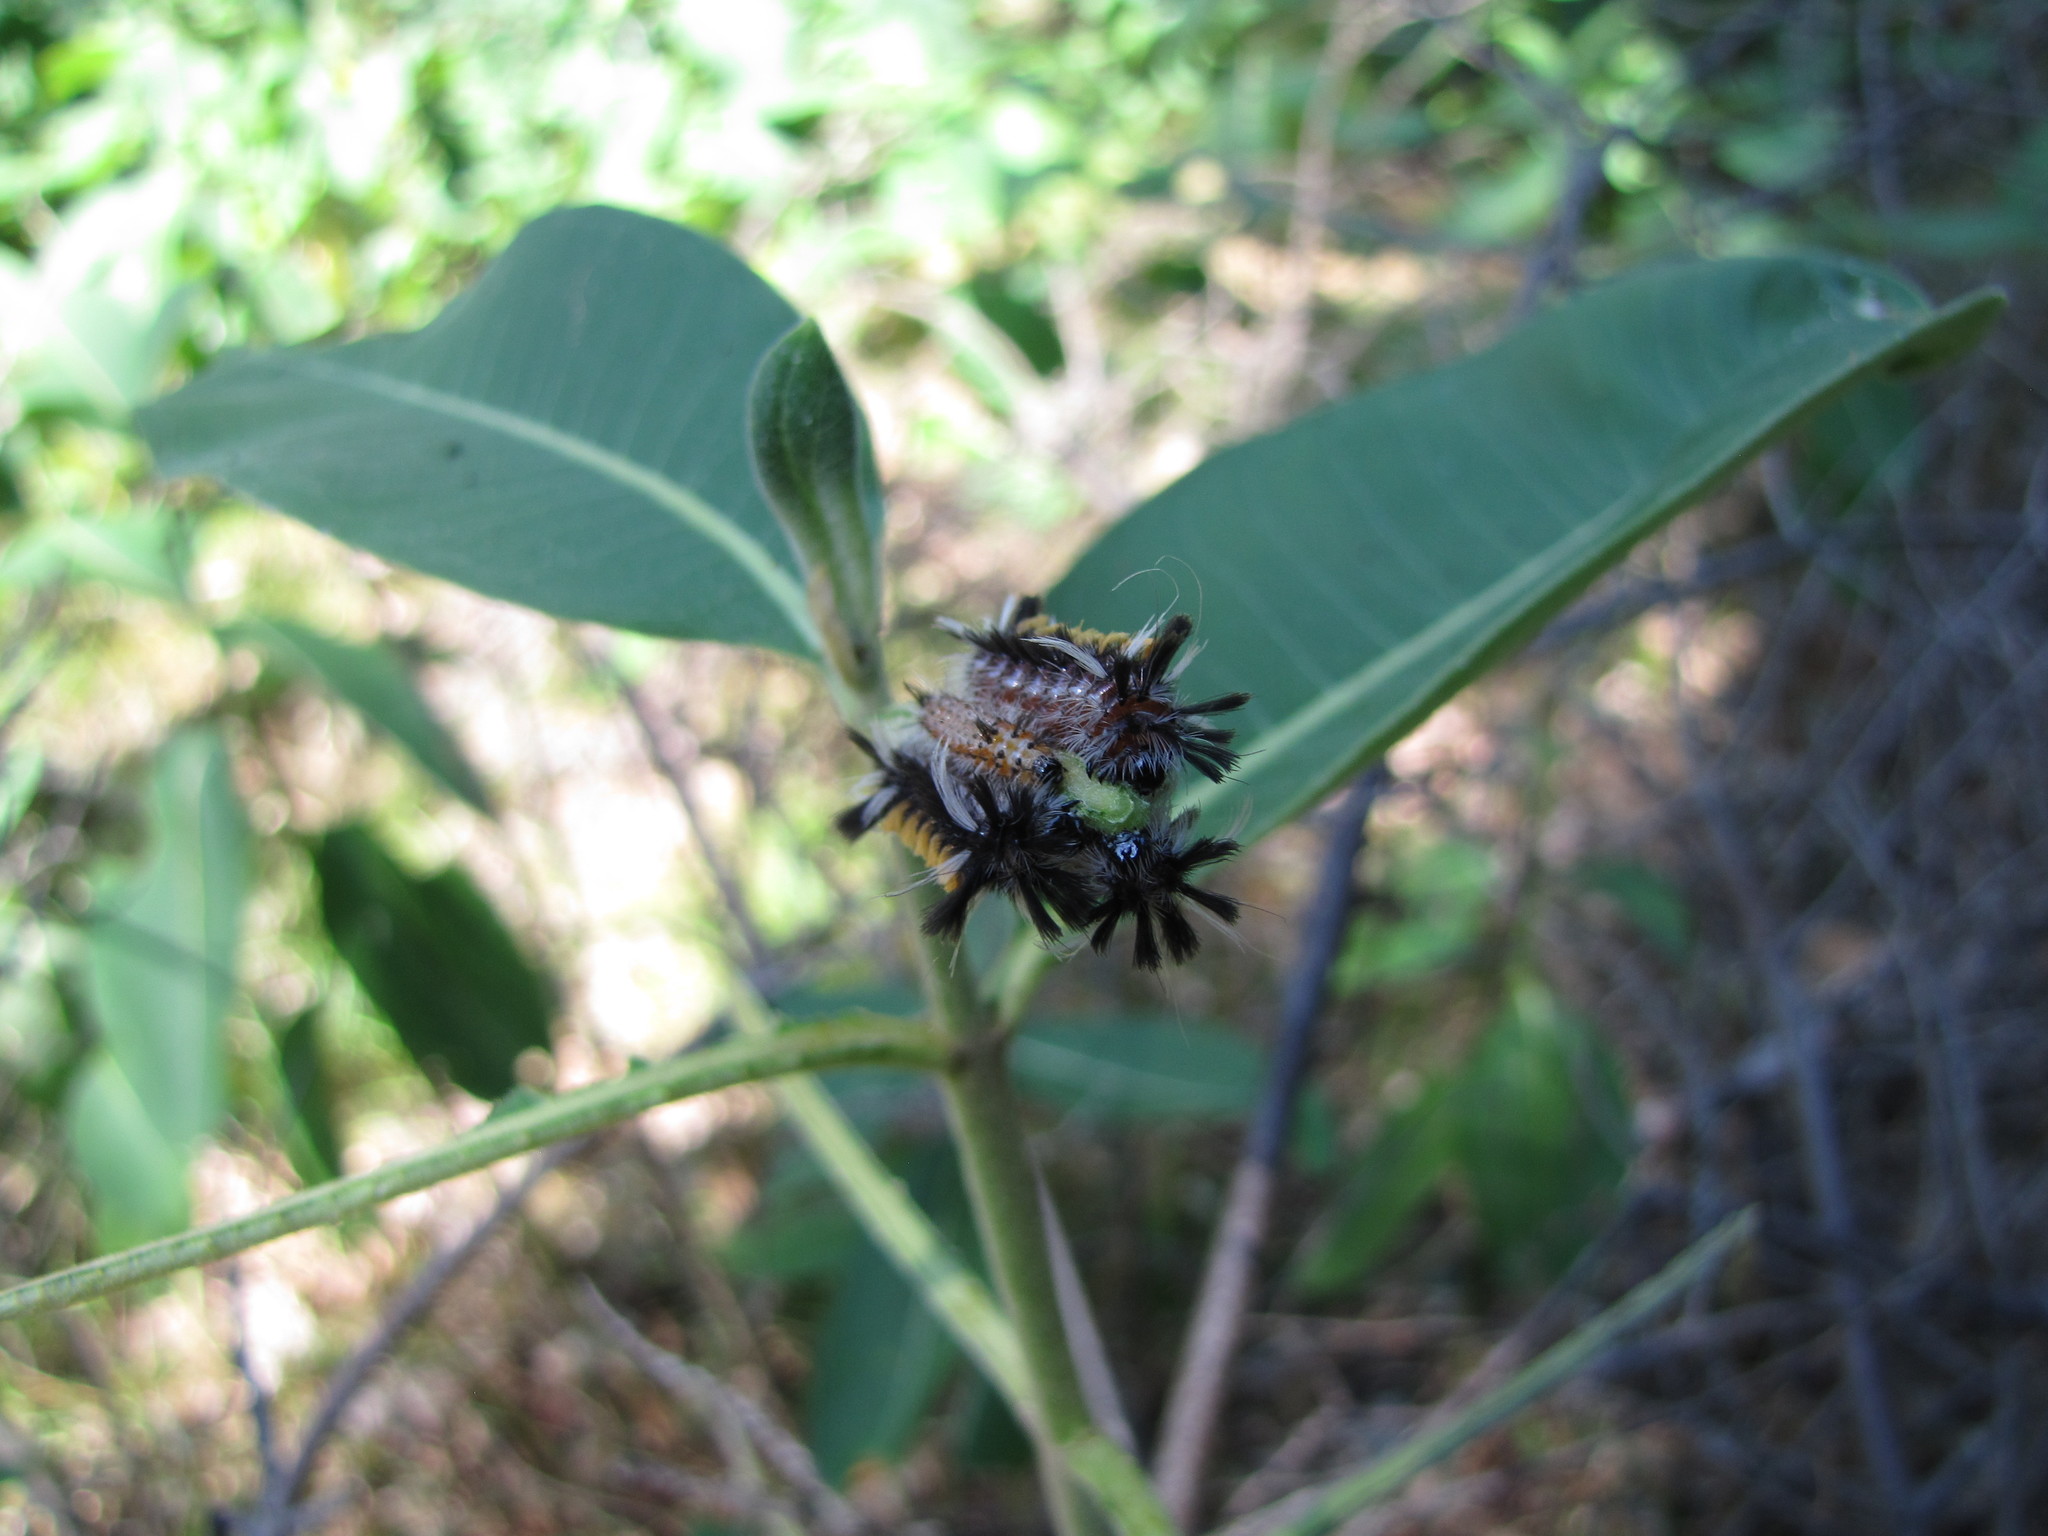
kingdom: Animalia
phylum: Arthropoda
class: Insecta
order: Lepidoptera
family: Erebidae
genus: Euchaetes
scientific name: Euchaetes egle
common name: Milkweed tussock moth
